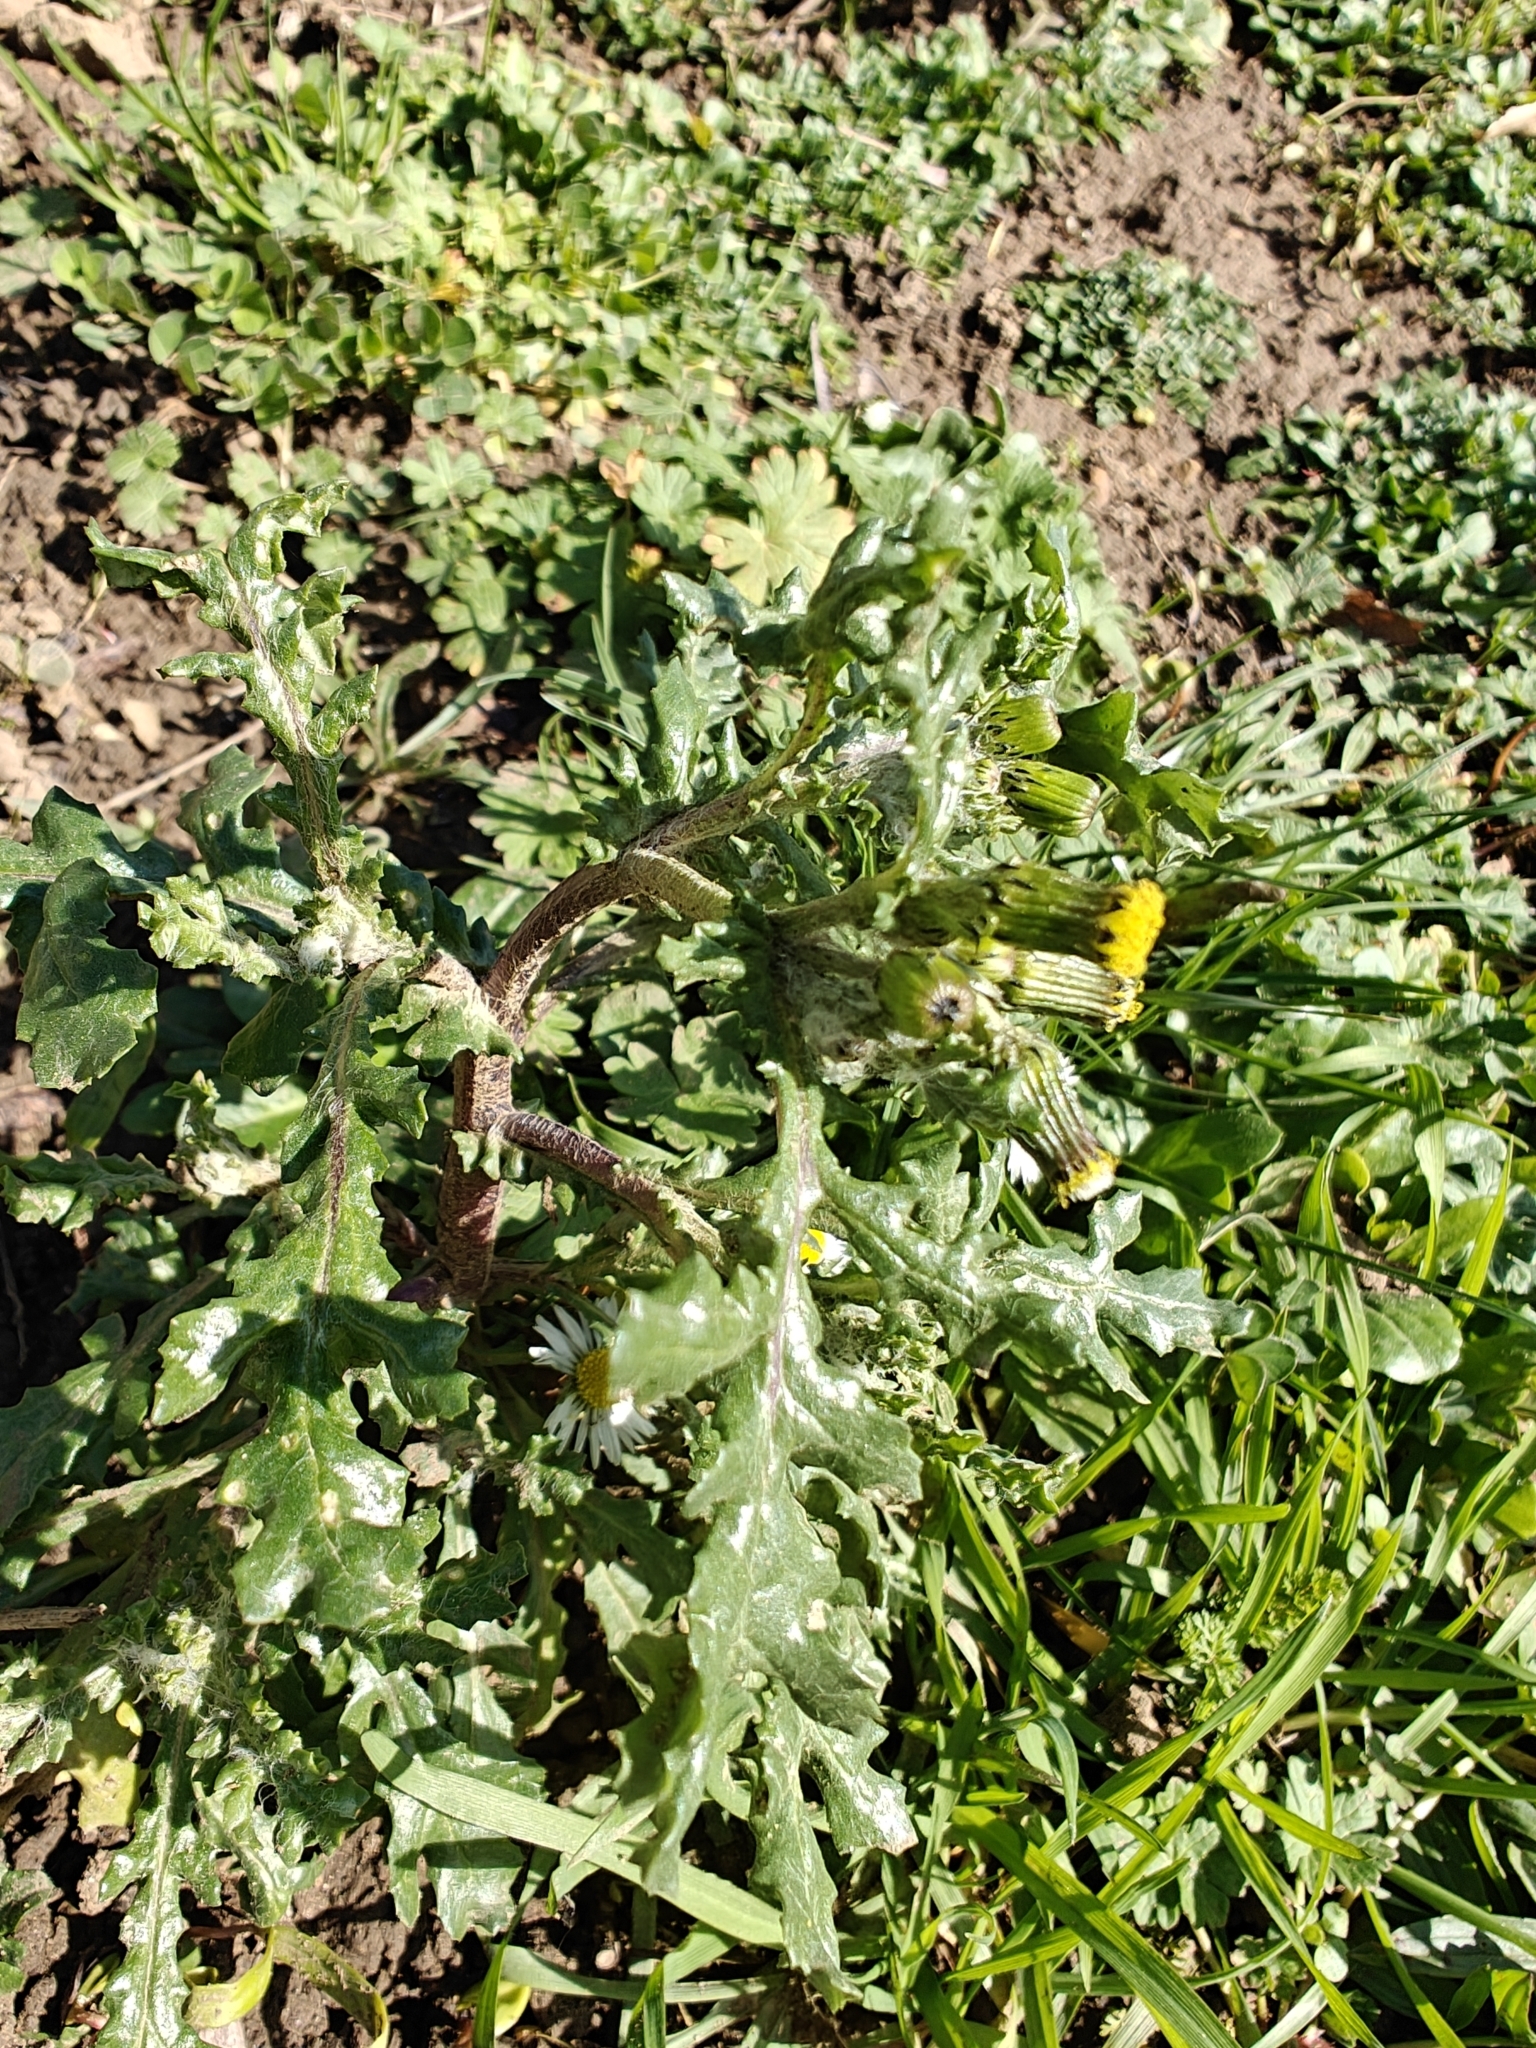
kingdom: Plantae
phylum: Tracheophyta
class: Magnoliopsida
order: Asterales
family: Asteraceae
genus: Senecio
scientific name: Senecio vulgaris
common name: Old-man-in-the-spring
